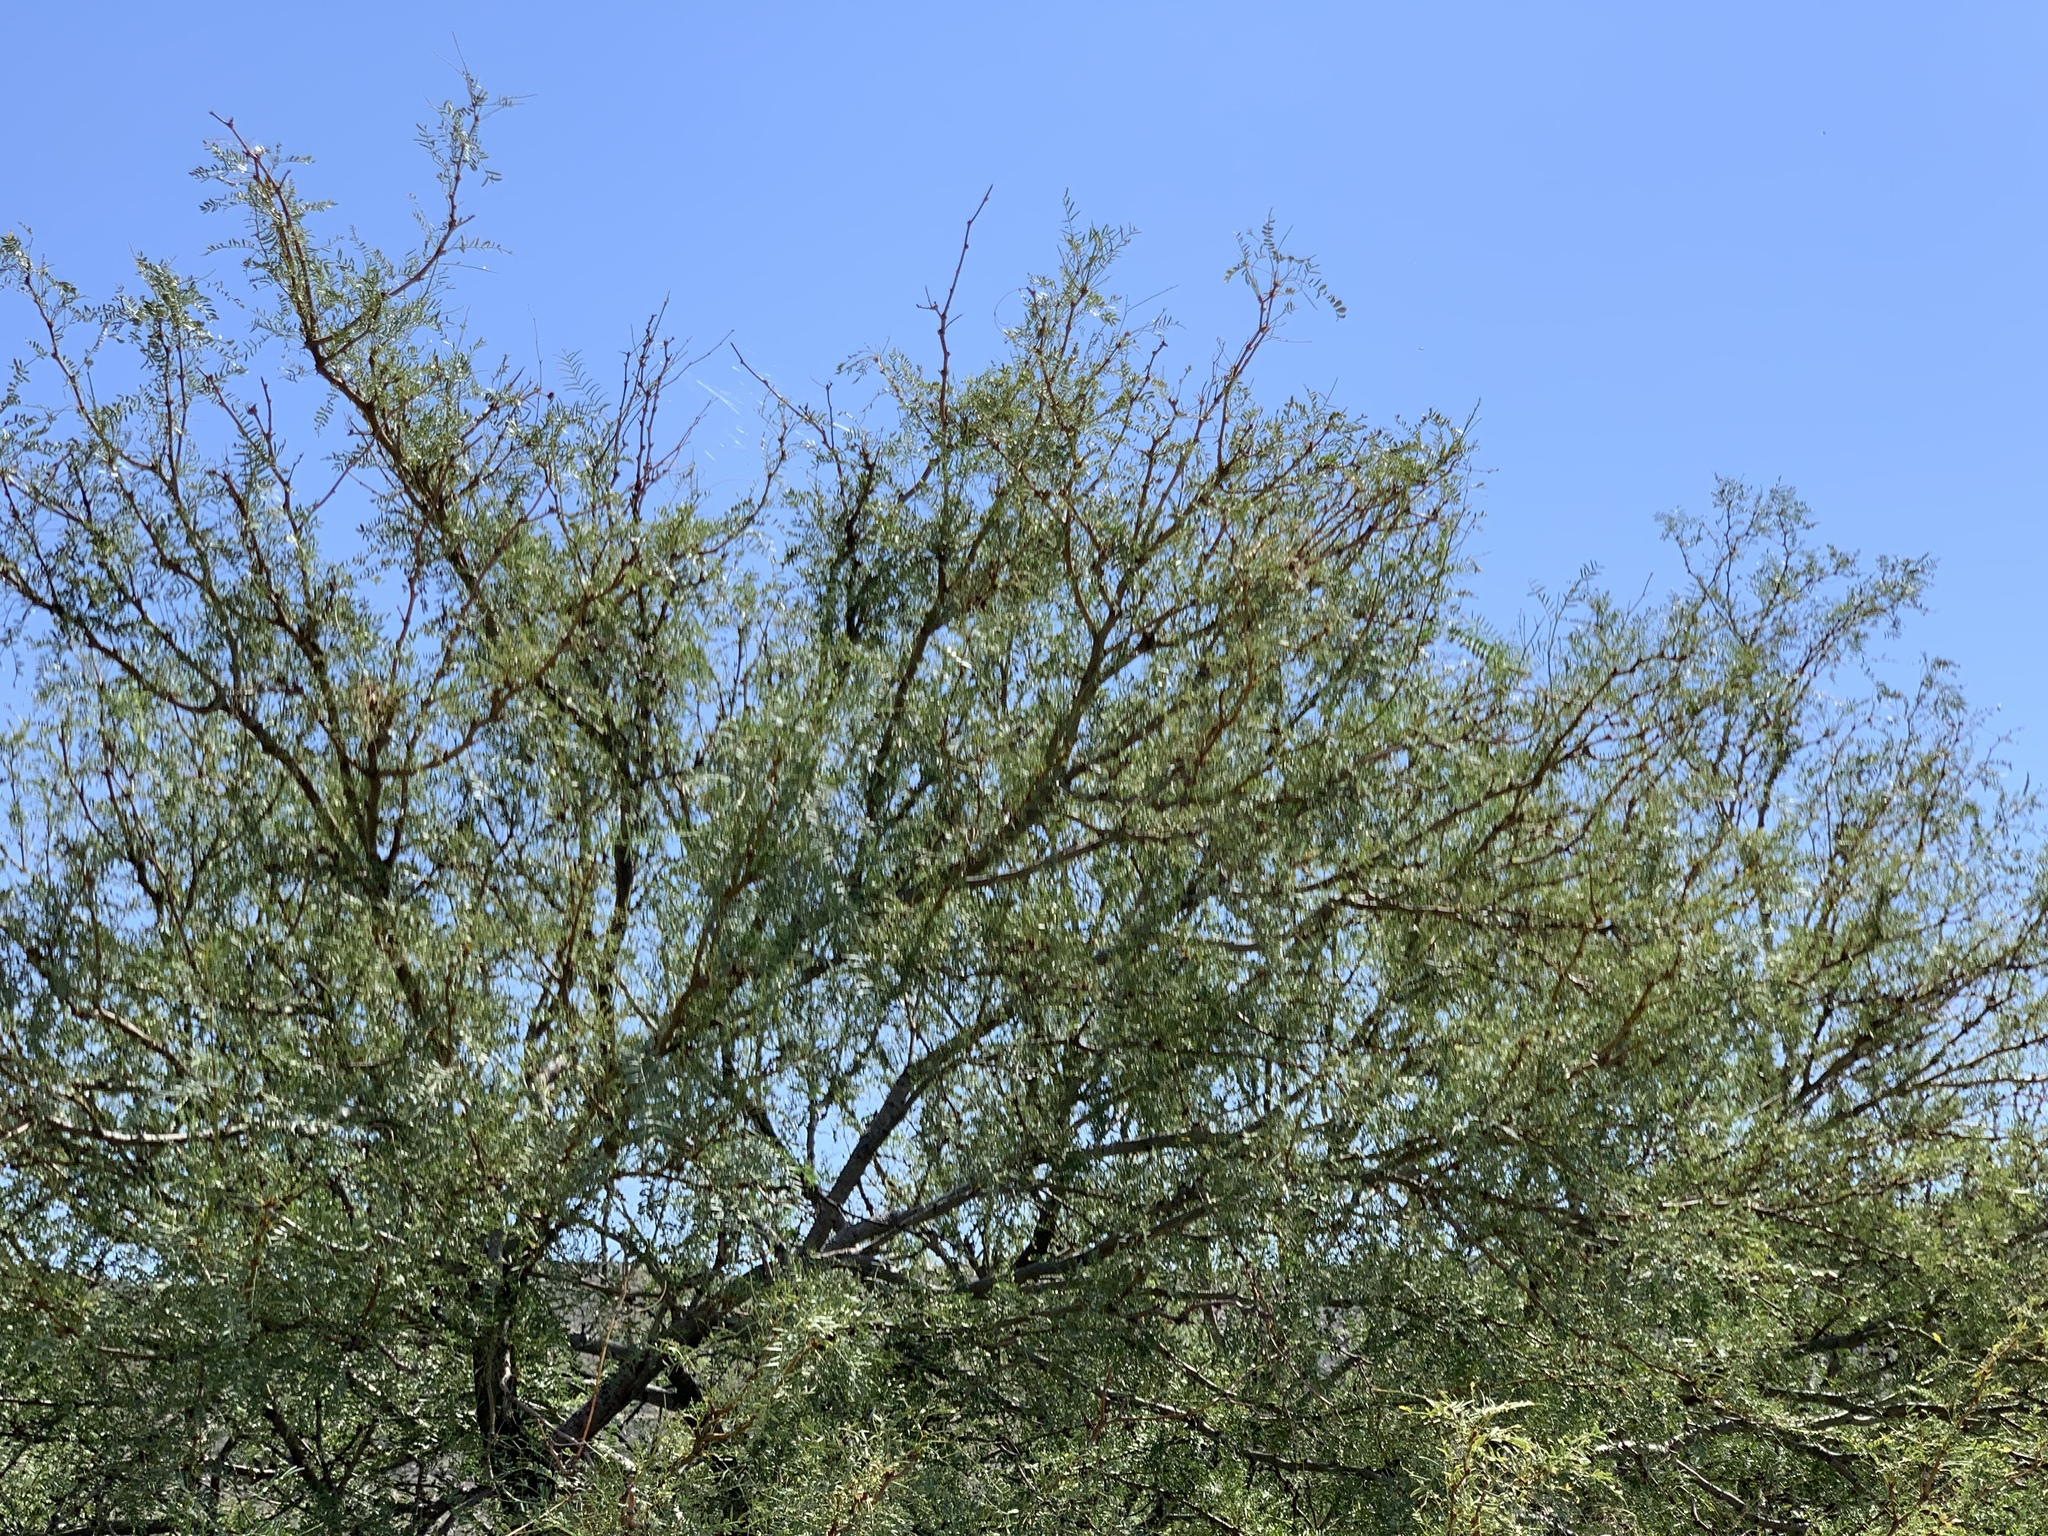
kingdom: Plantae
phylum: Tracheophyta
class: Magnoliopsida
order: Fabales
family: Fabaceae
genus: Prosopis
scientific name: Prosopis glandulosa
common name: Honey mesquite
